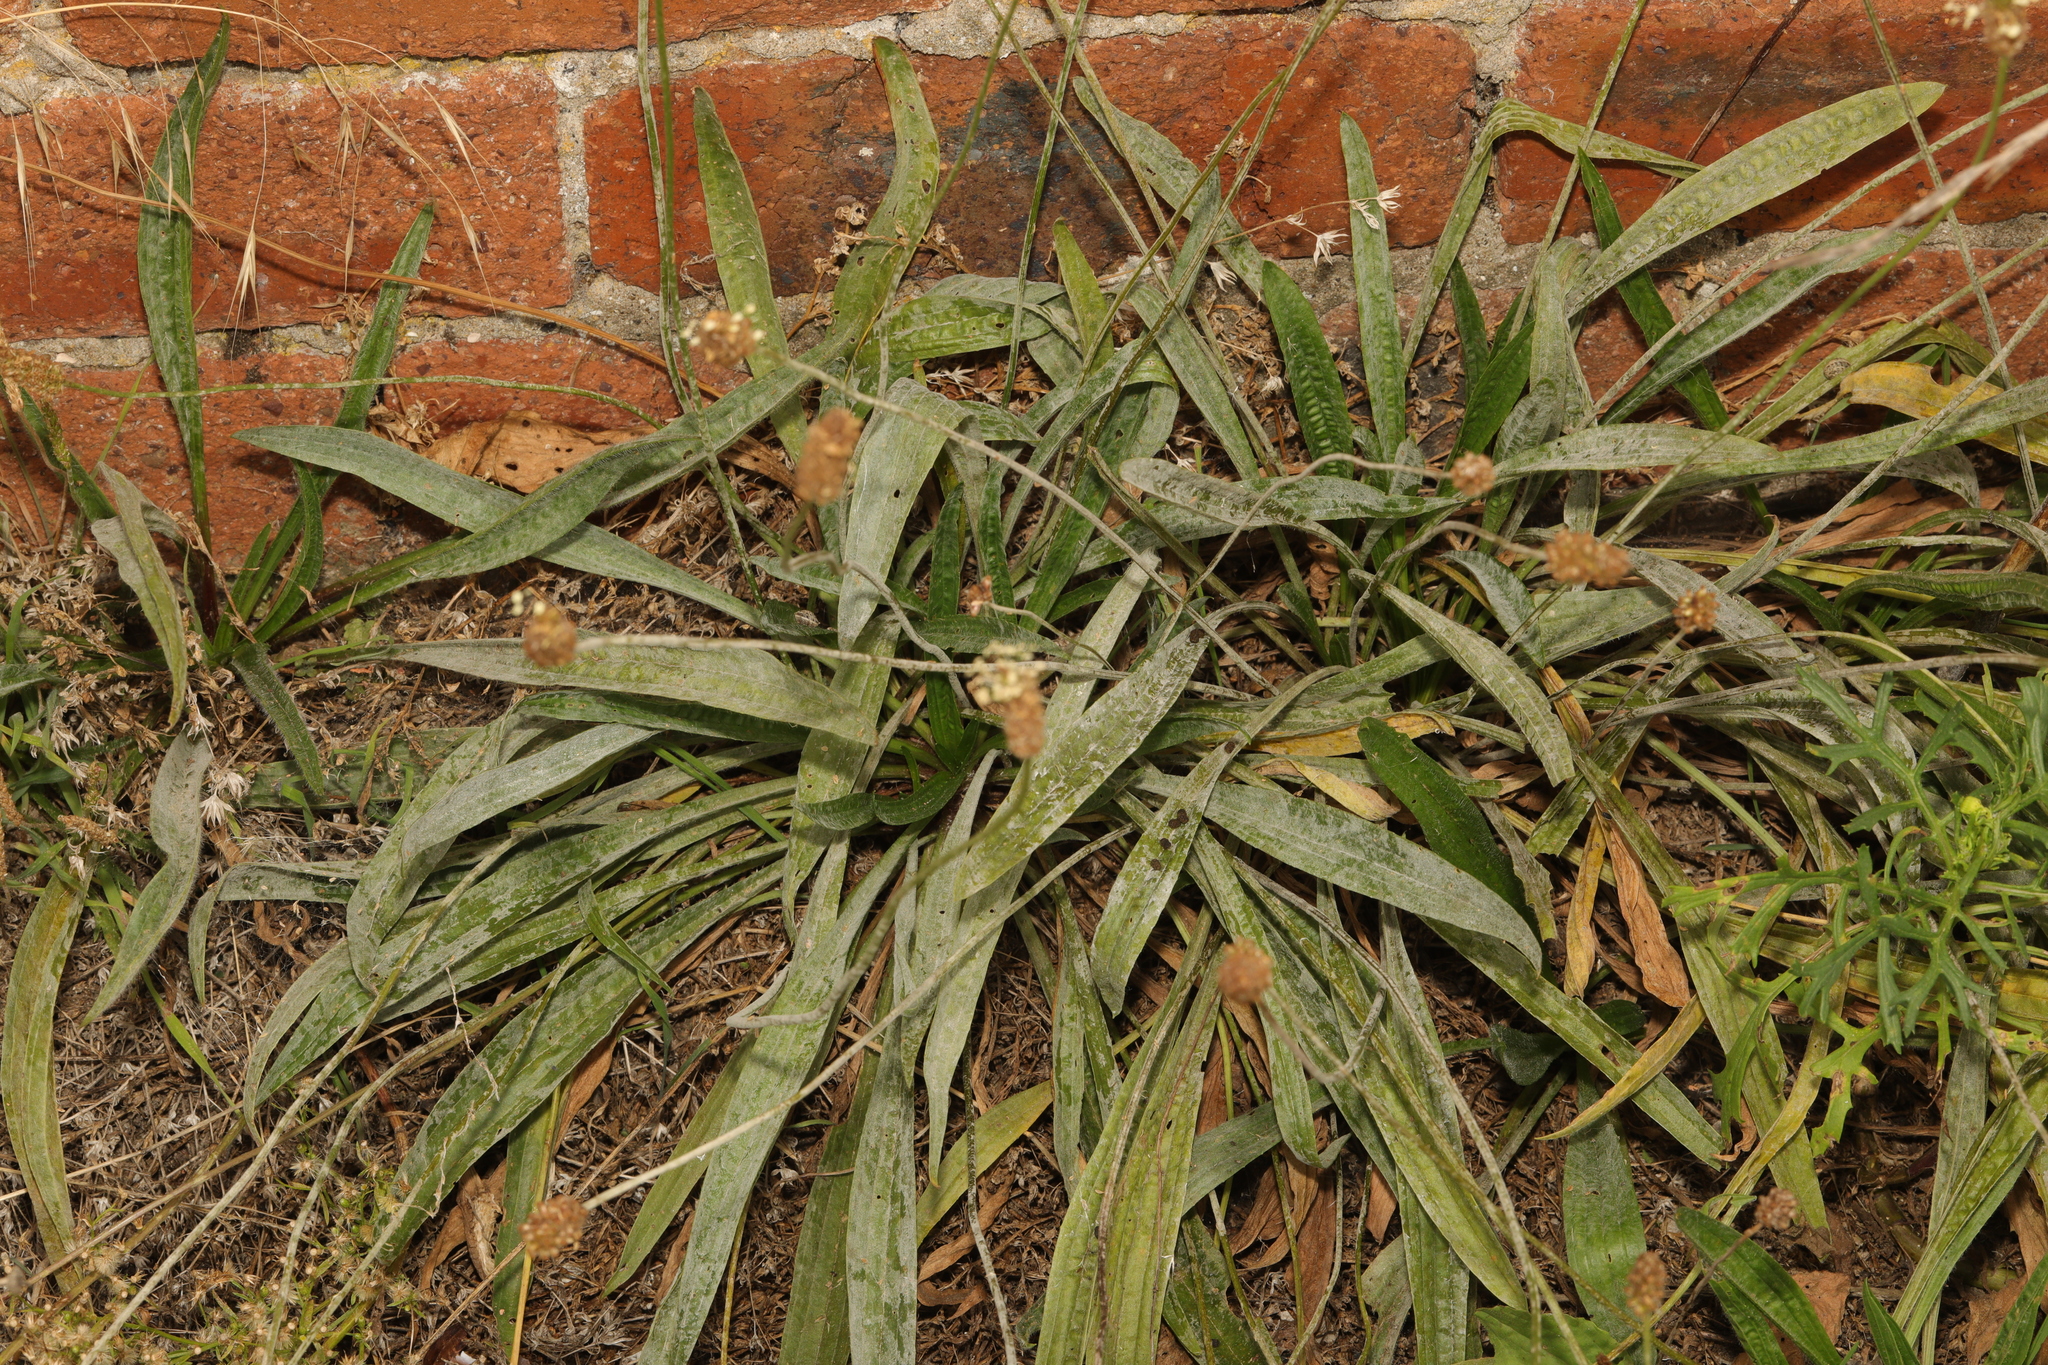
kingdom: Plantae
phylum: Tracheophyta
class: Magnoliopsida
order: Lamiales
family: Plantaginaceae
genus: Plantago
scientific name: Plantago lanceolata
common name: Ribwort plantain
